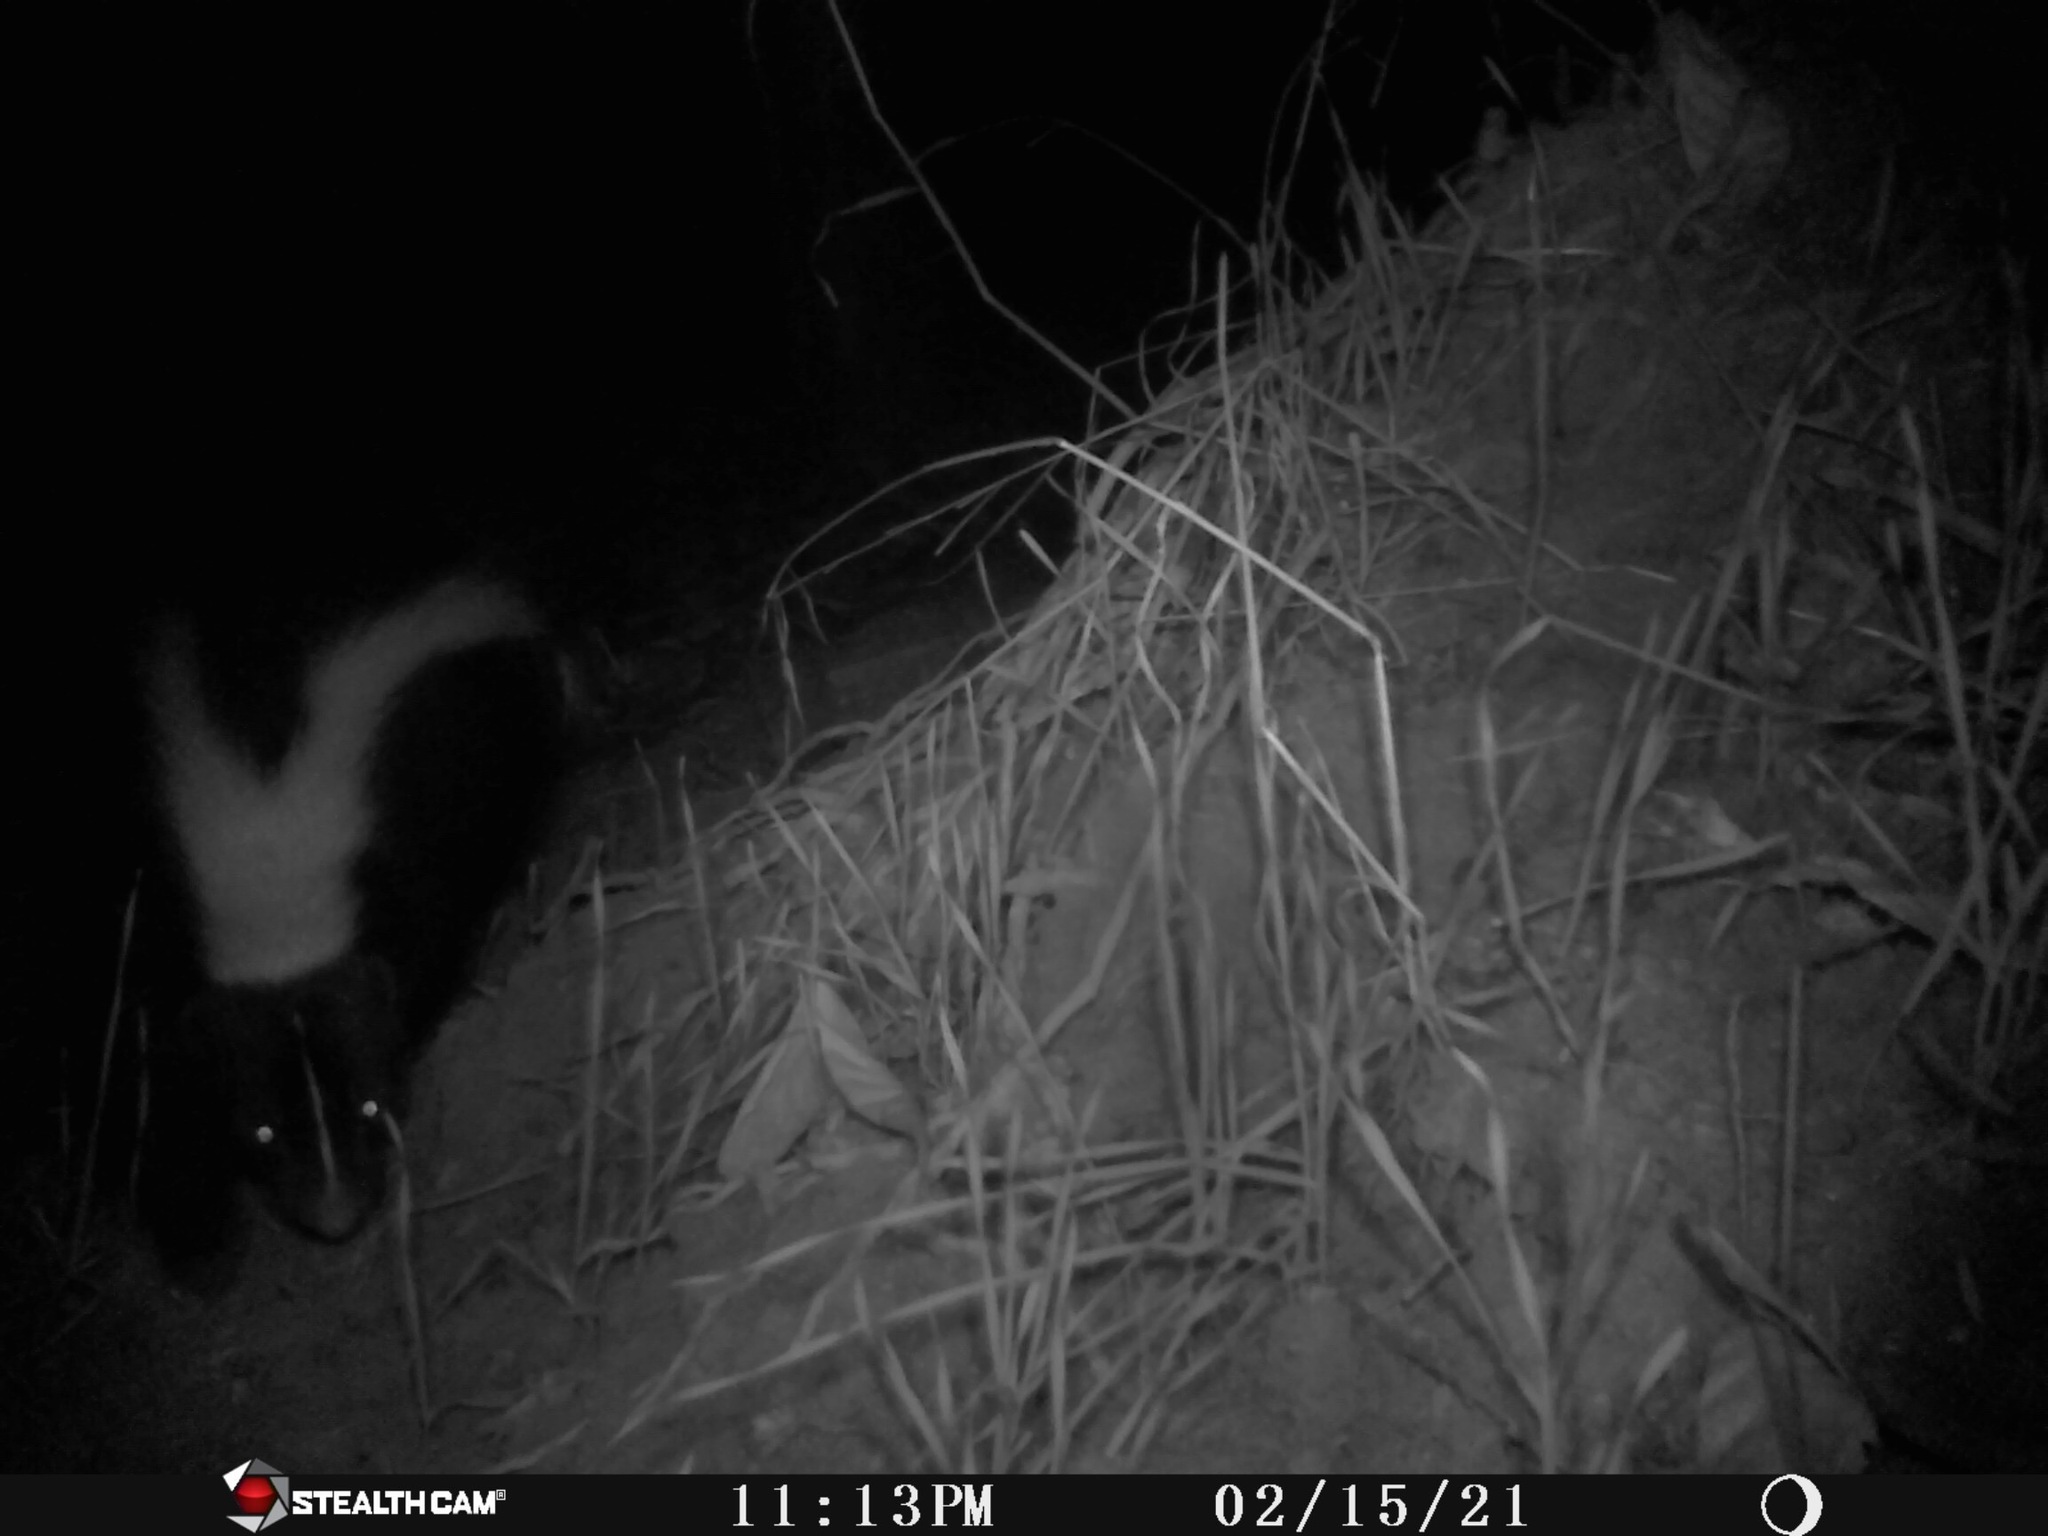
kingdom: Animalia
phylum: Chordata
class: Mammalia
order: Carnivora
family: Mephitidae
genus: Mephitis
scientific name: Mephitis mephitis
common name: Striped skunk
